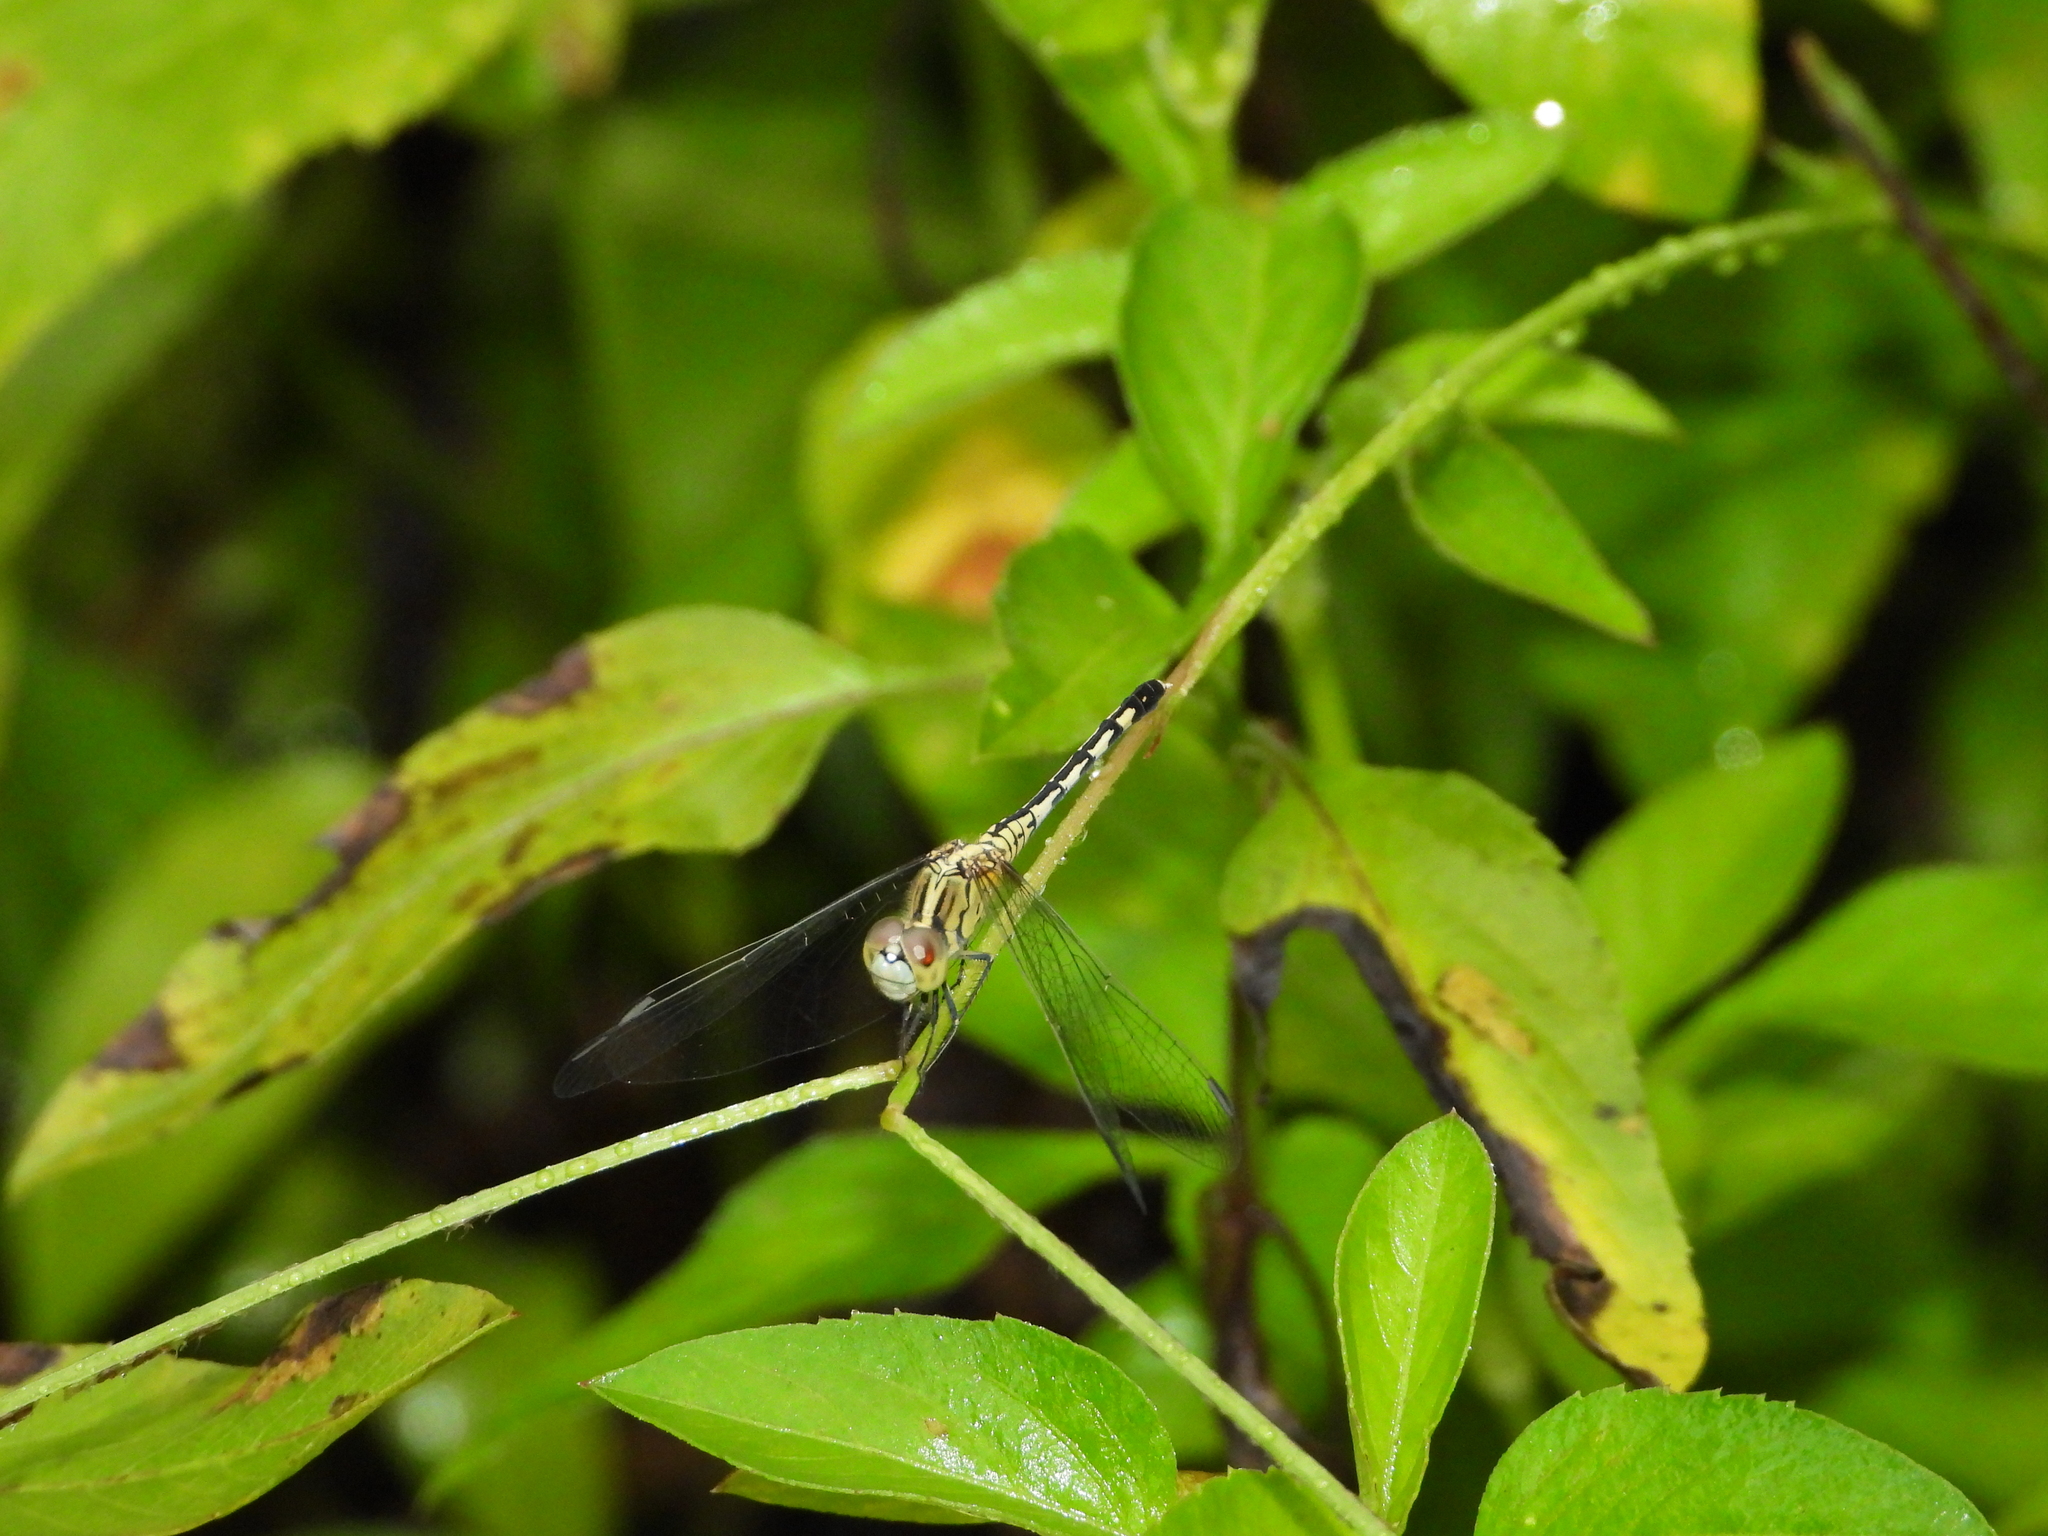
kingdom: Animalia
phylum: Arthropoda
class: Insecta
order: Odonata
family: Libellulidae
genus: Diplacodes
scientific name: Diplacodes trivialis
